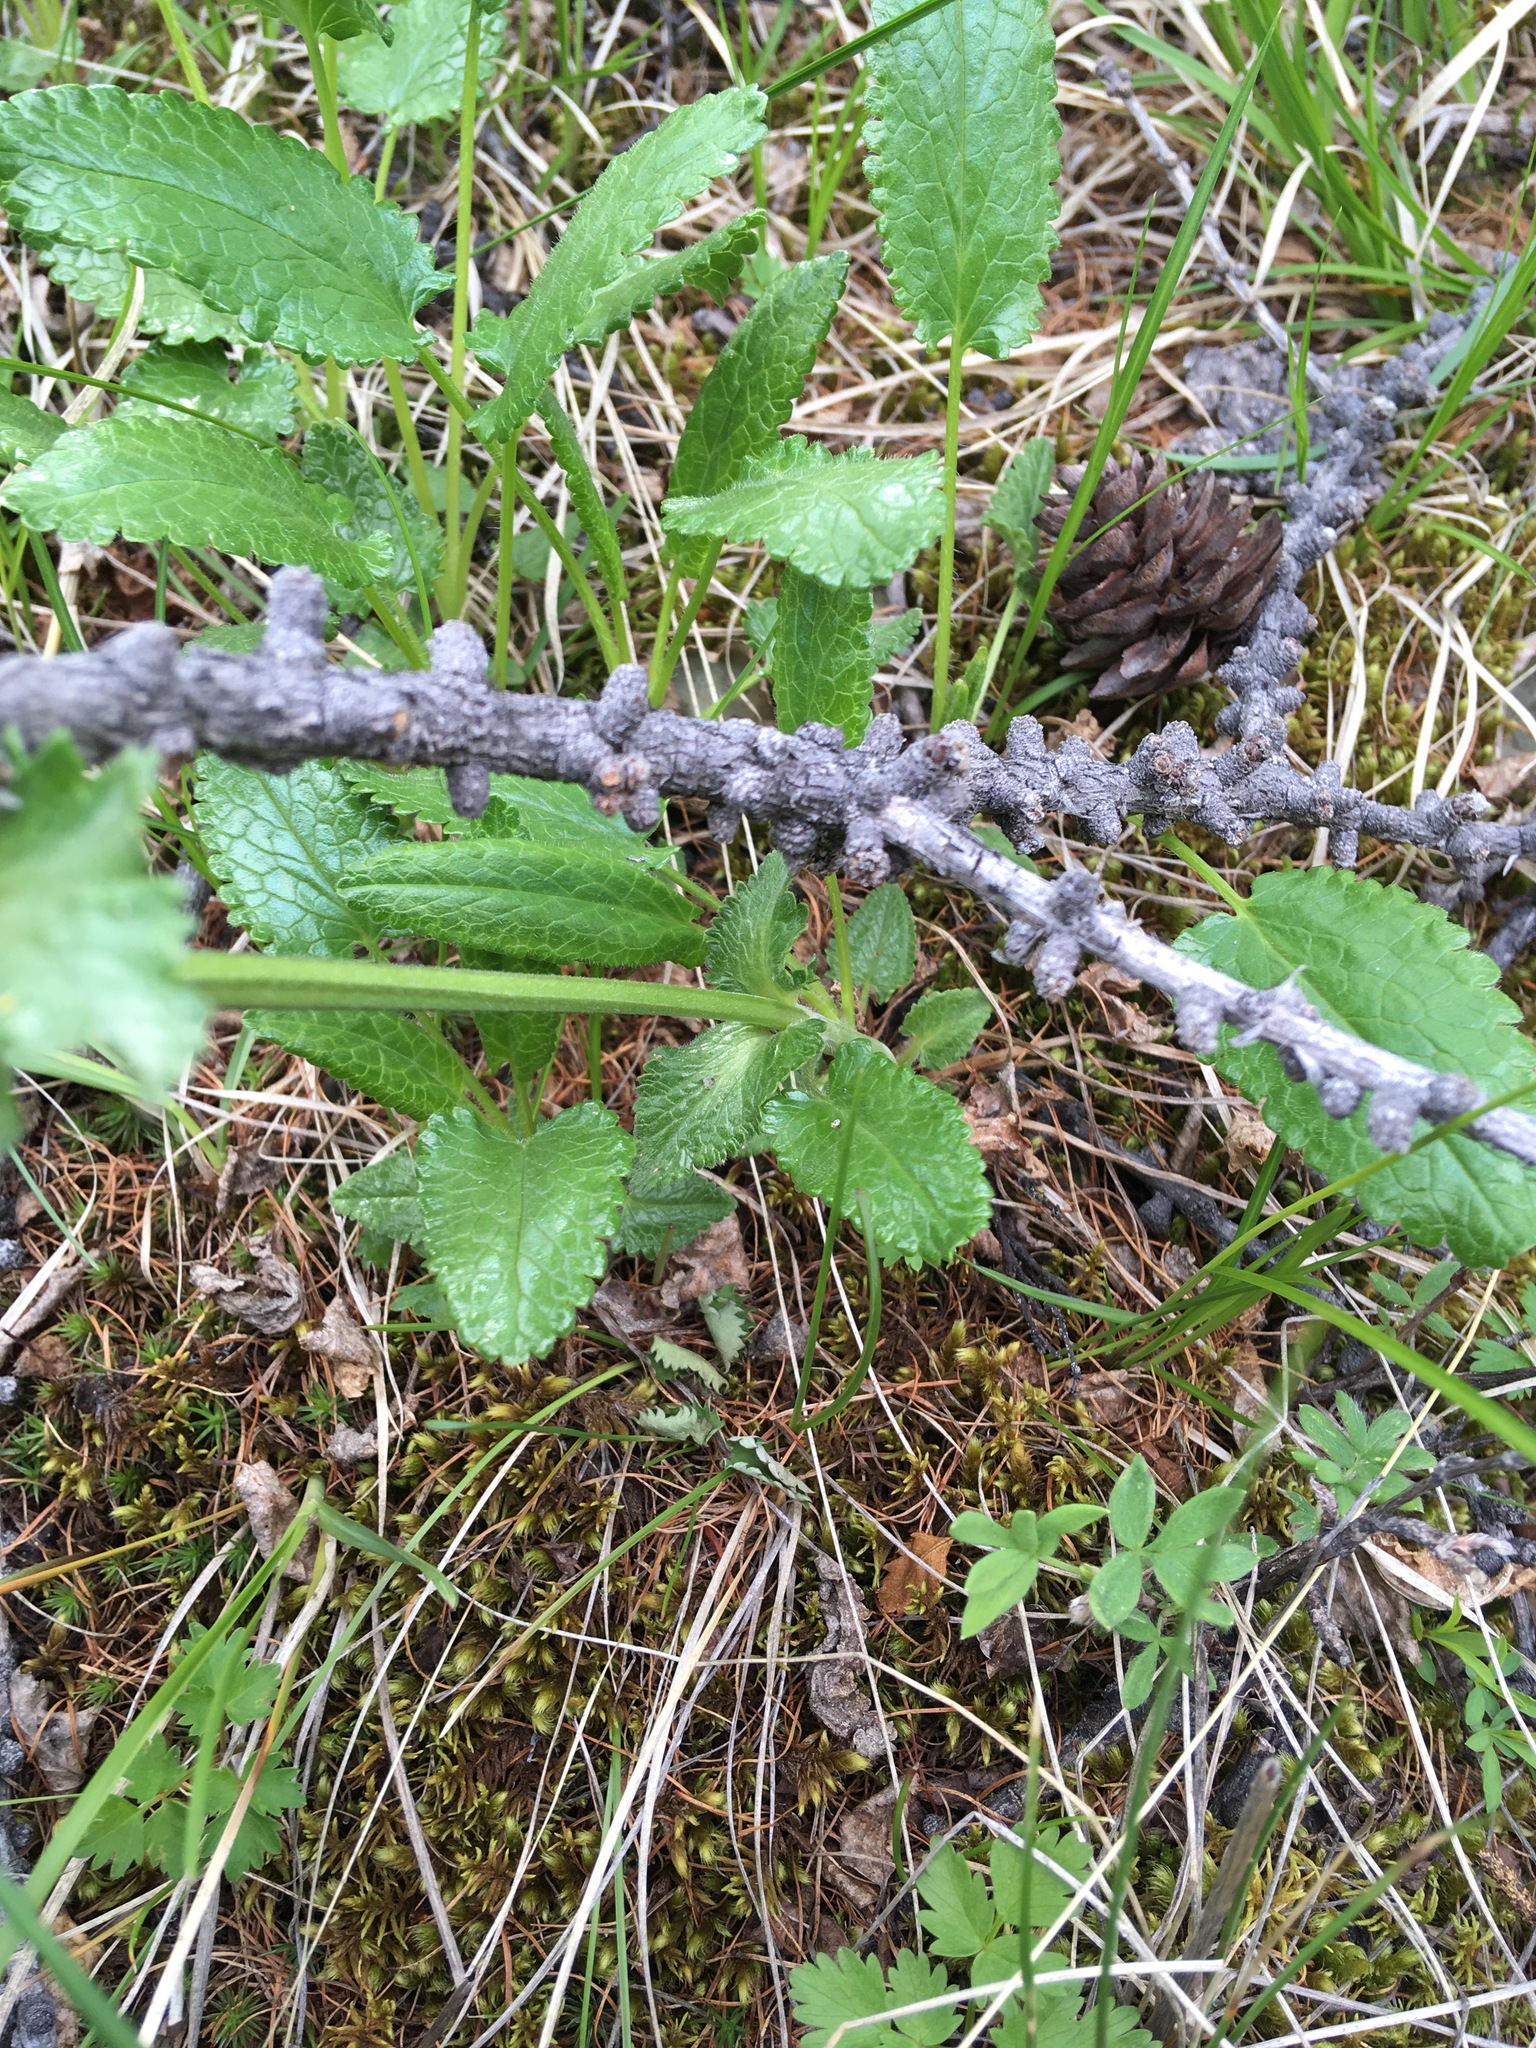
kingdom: Plantae
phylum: Tracheophyta
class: Magnoliopsida
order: Lamiales
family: Lamiaceae
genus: Dracocephalum
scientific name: Dracocephalum grandiflorum
